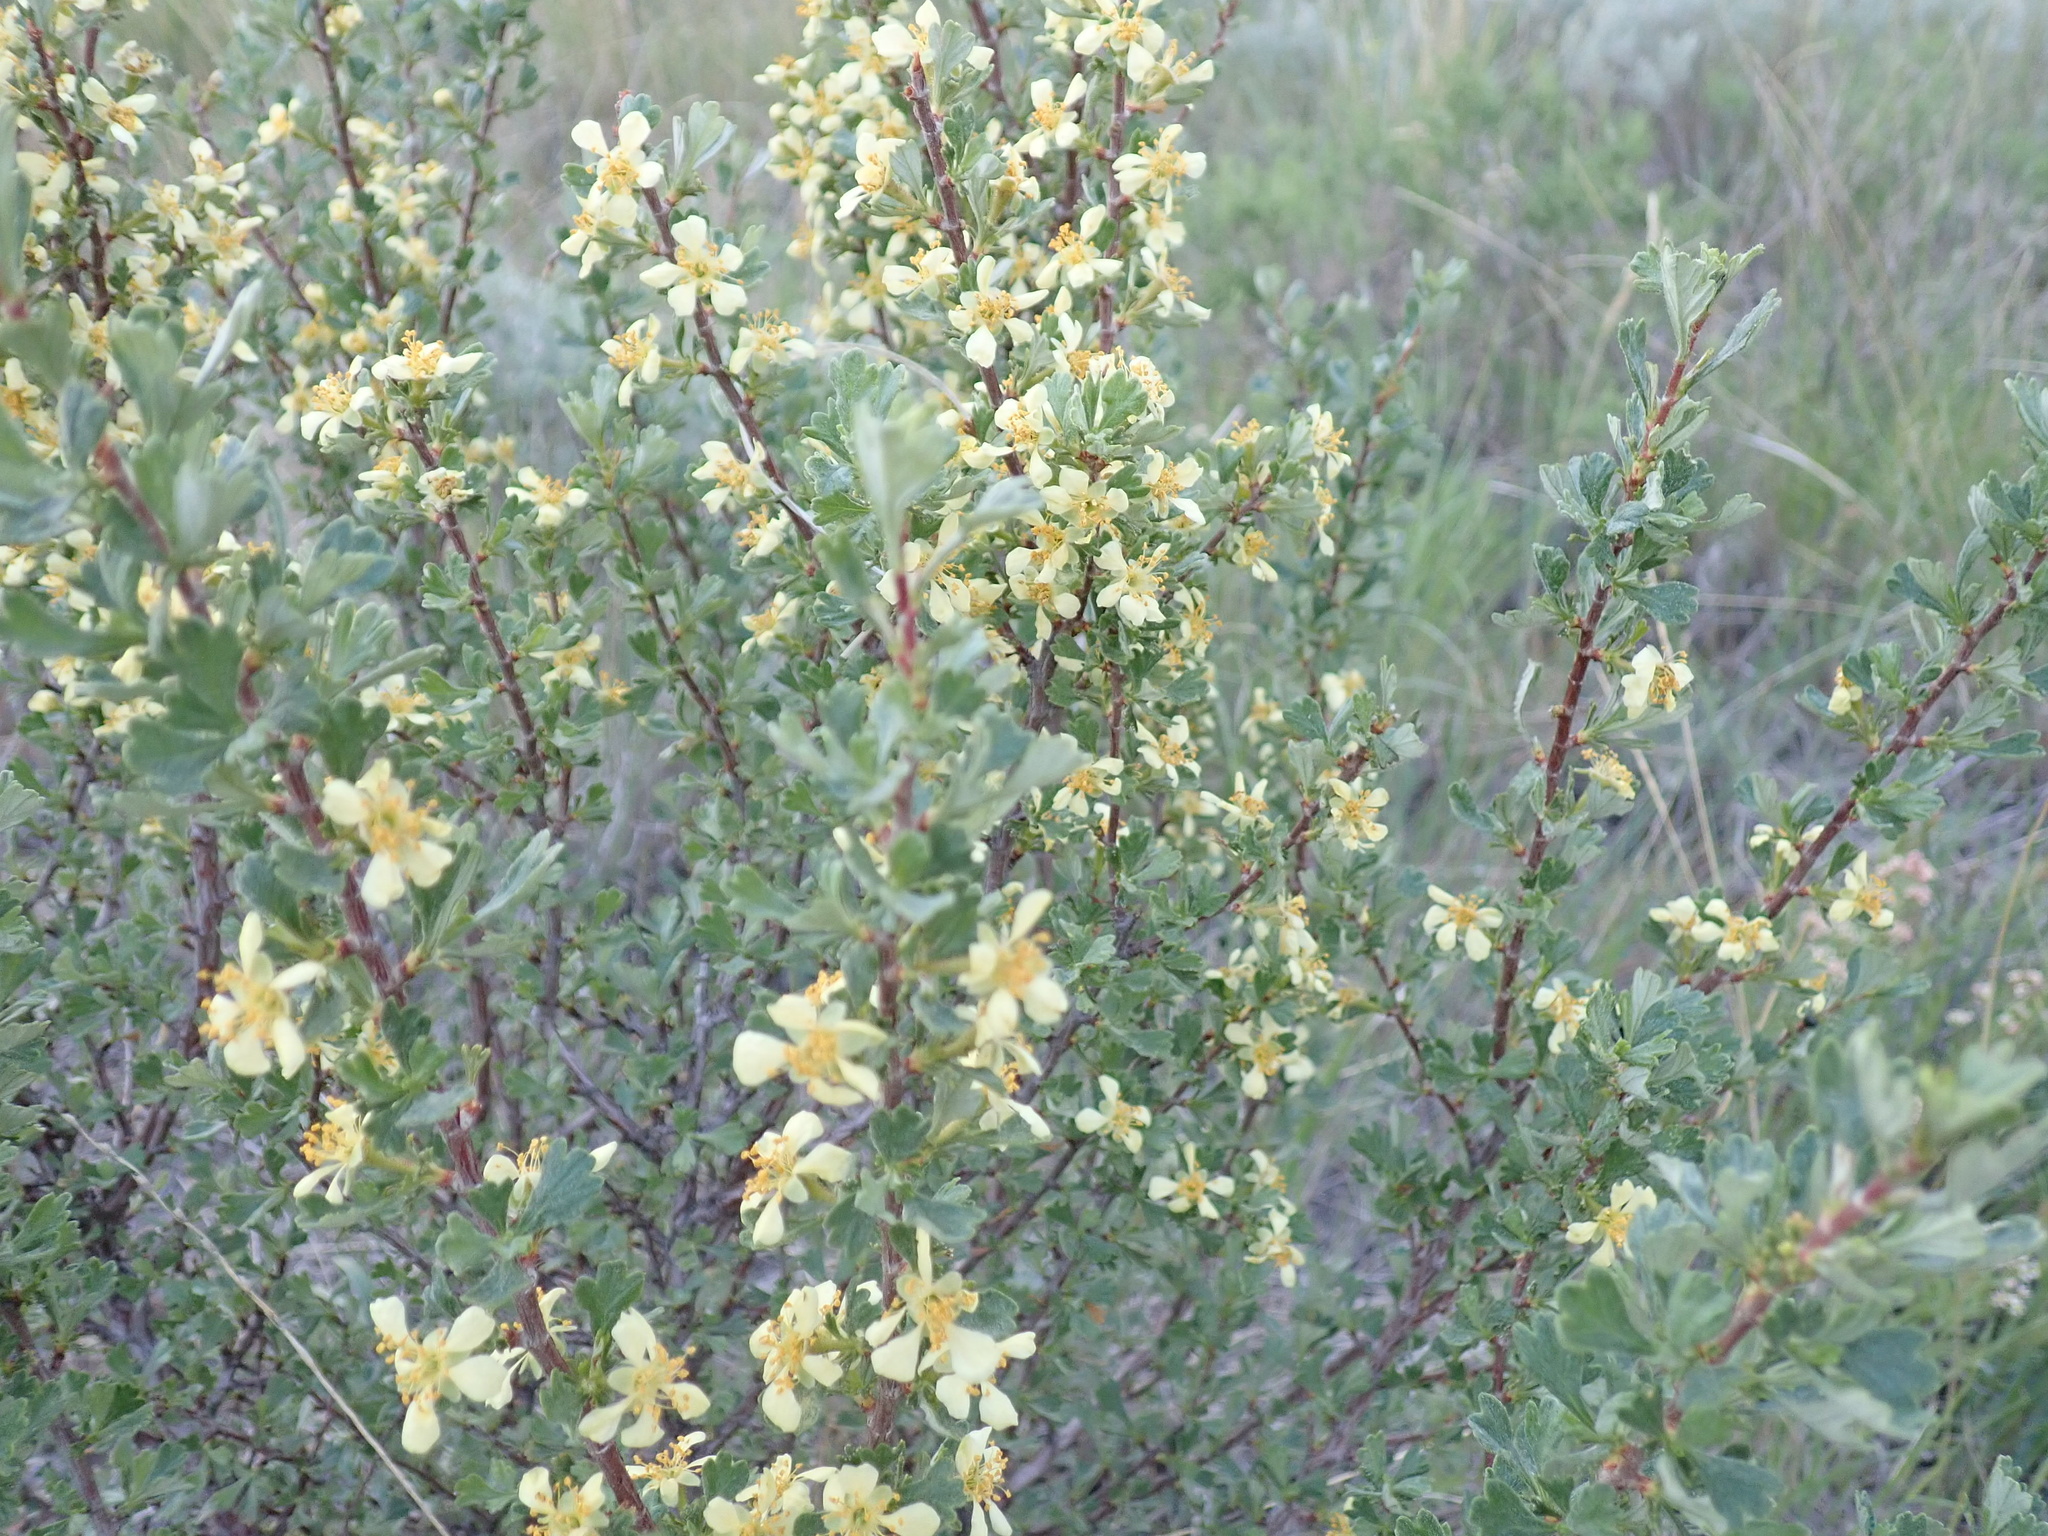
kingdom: Plantae
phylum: Tracheophyta
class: Magnoliopsida
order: Rosales
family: Rosaceae
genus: Purshia
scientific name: Purshia tridentata
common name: Antelope bitterbrush
